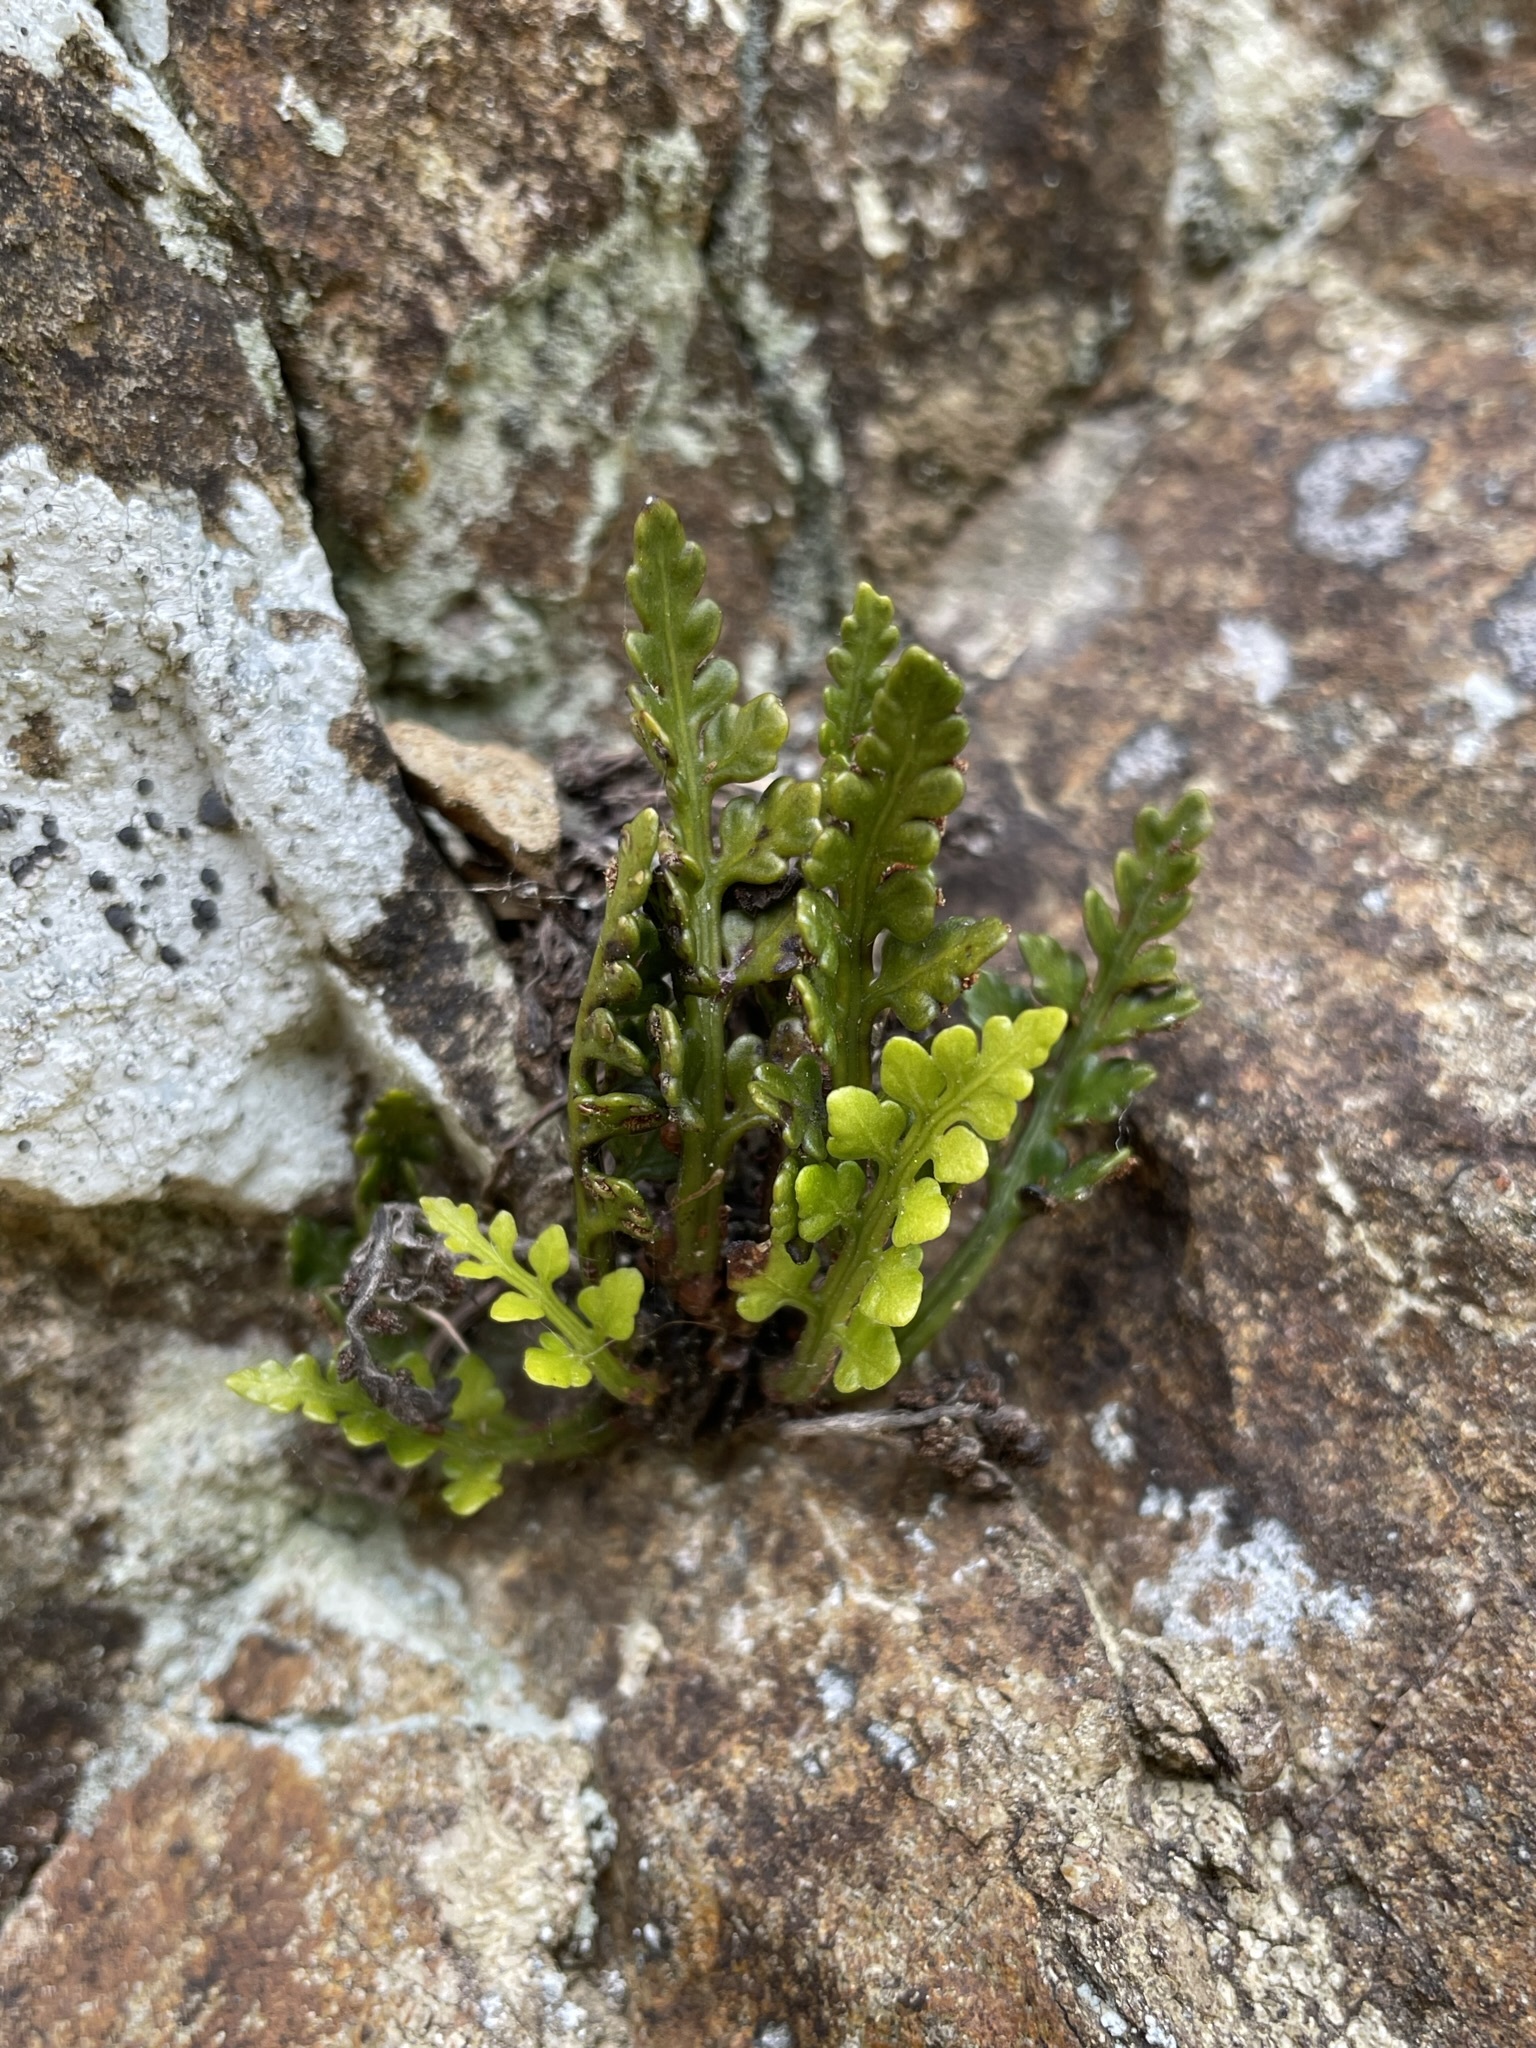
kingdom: Plantae
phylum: Tracheophyta
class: Polypodiopsida
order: Polypodiales
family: Aspleniaceae
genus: Asplenium
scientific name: Asplenium appendiculatum
